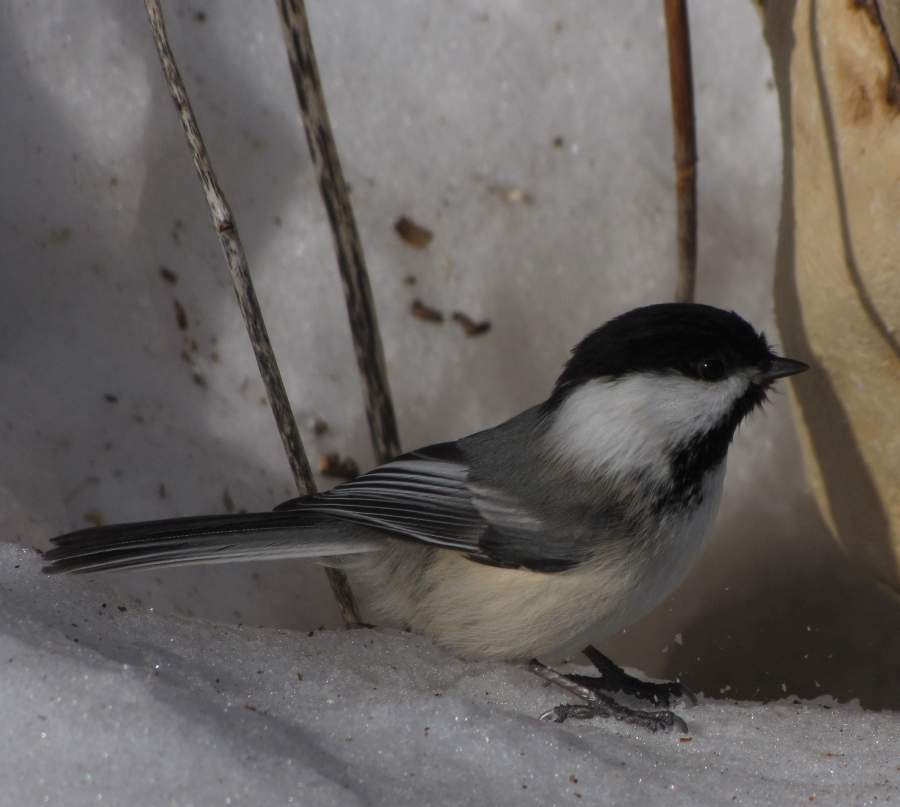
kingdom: Animalia
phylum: Chordata
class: Aves
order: Passeriformes
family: Paridae
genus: Poecile
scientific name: Poecile atricapillus
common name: Black-capped chickadee
